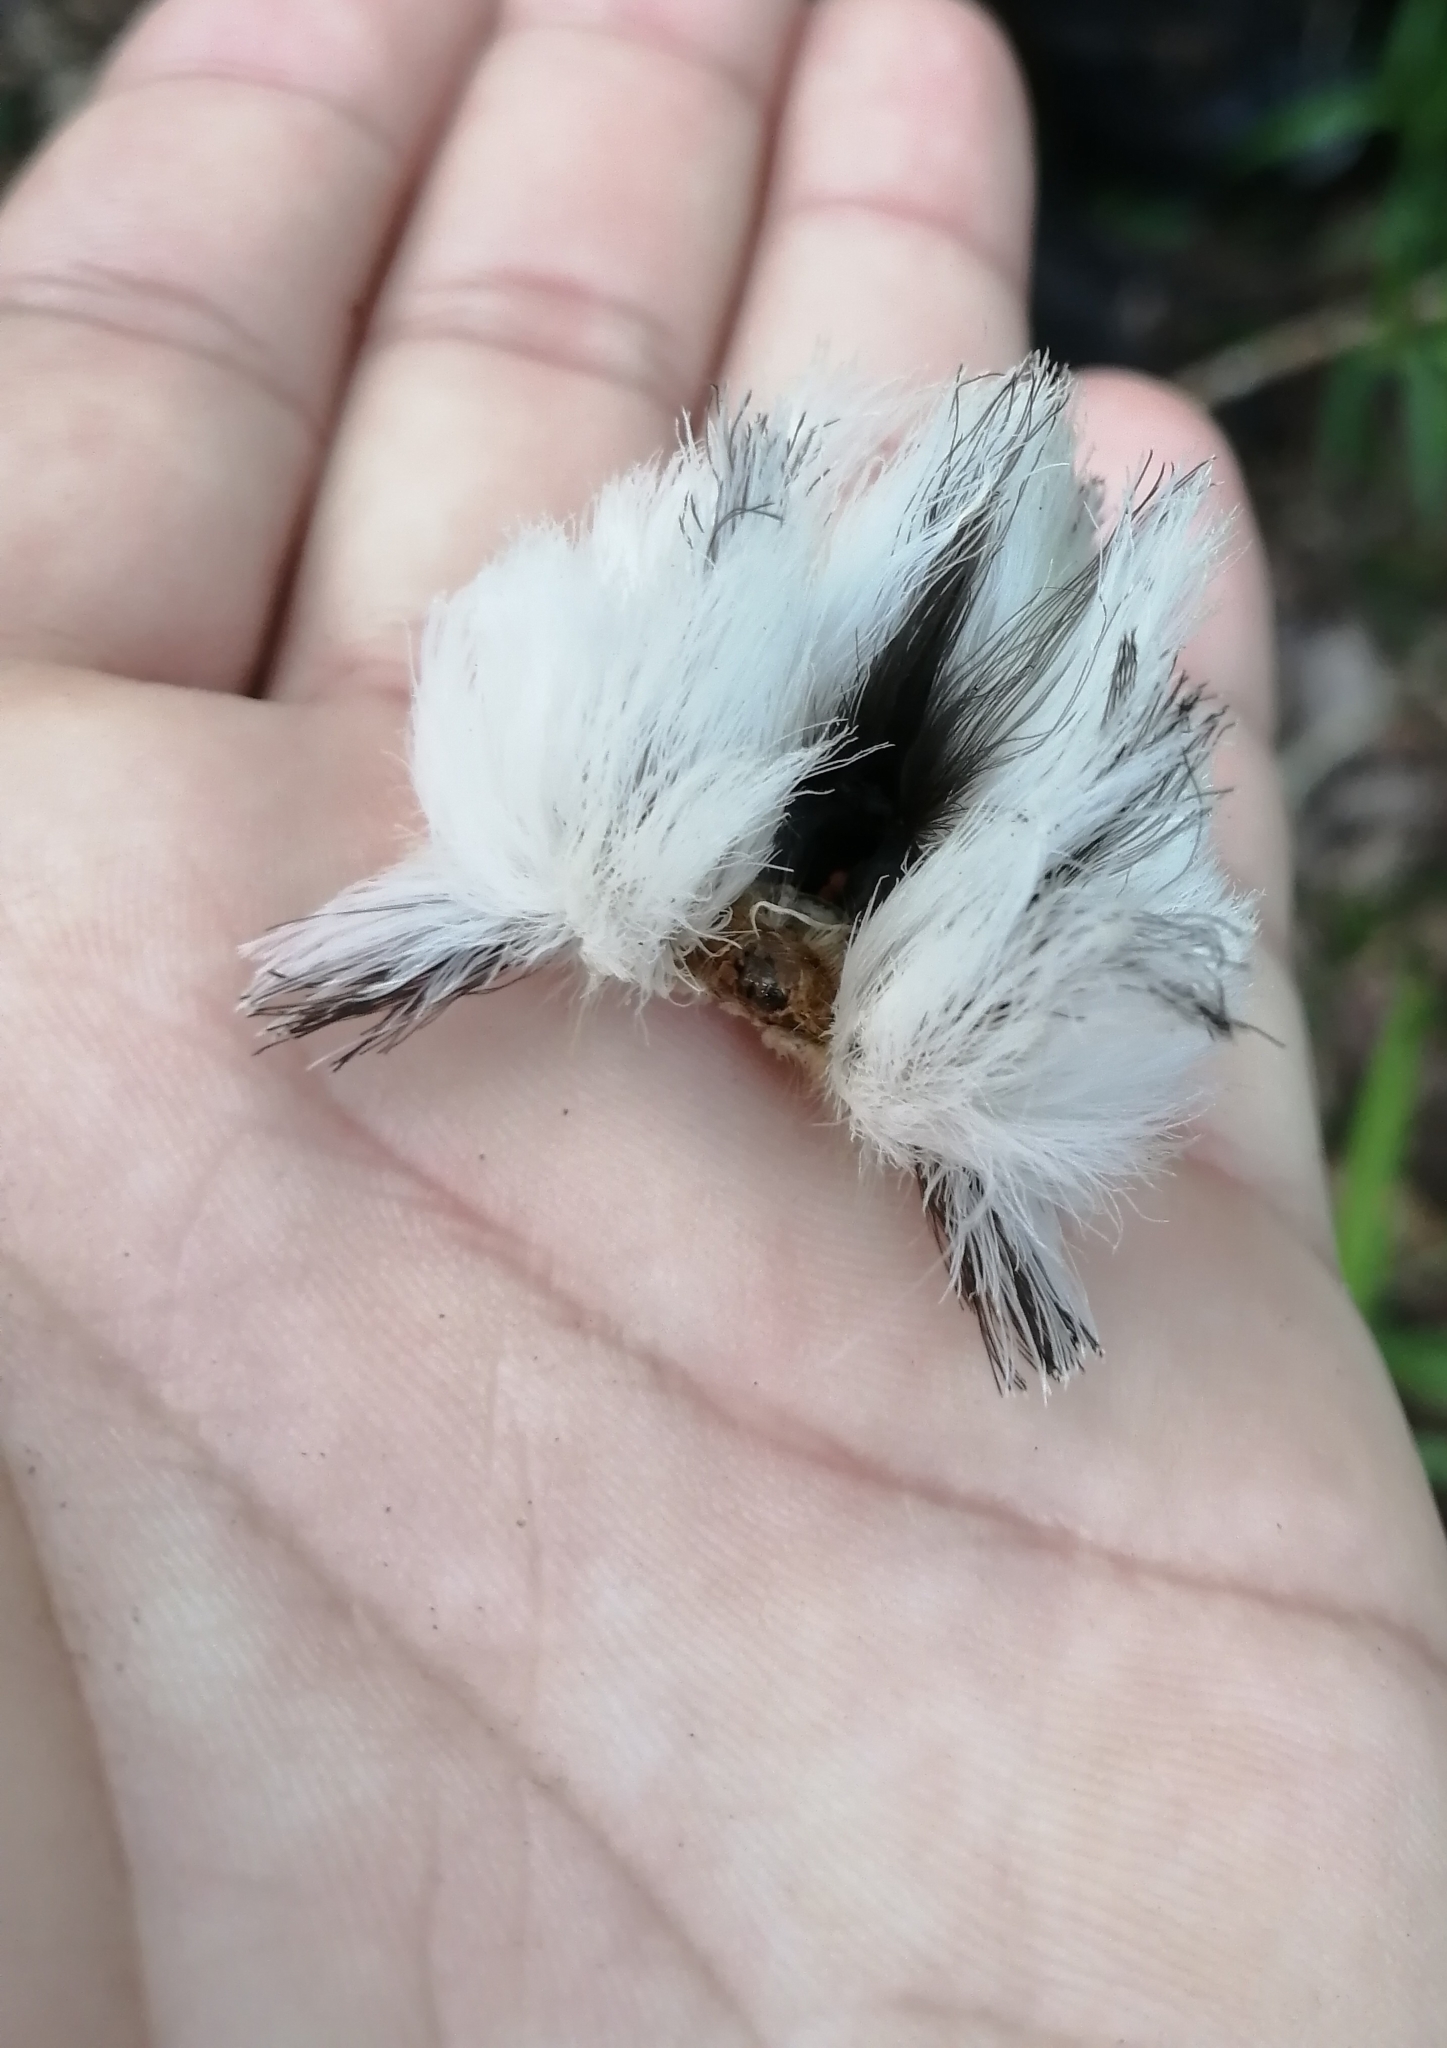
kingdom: Animalia
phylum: Arthropoda
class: Insecta
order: Lepidoptera
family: Megalopygidae
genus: Podalia
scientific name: Podalia orsilochus
